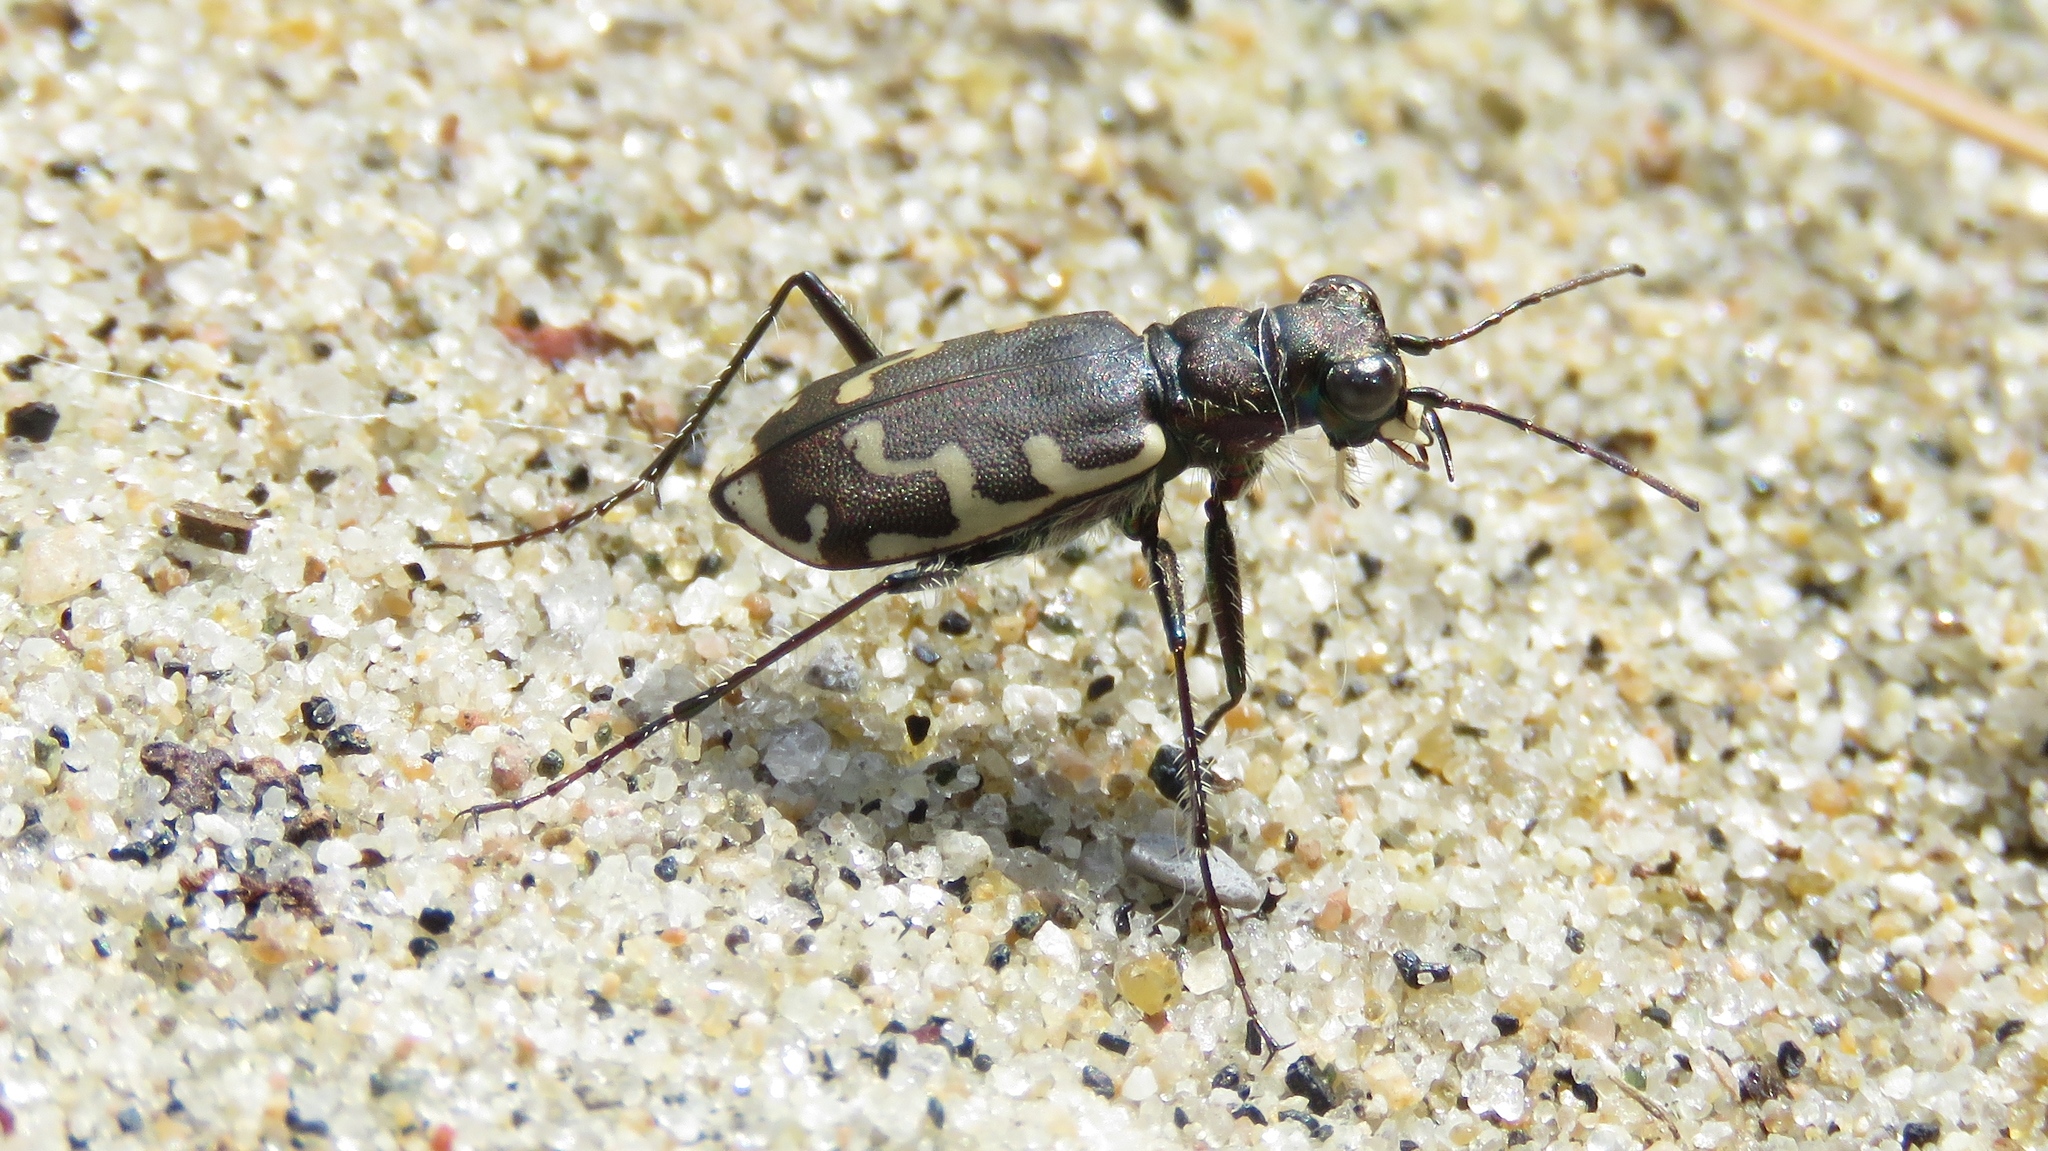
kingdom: Animalia
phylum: Arthropoda
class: Insecta
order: Coleoptera
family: Carabidae
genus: Cicindela
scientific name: Cicindela repanda
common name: Bronzed tiger beetle
